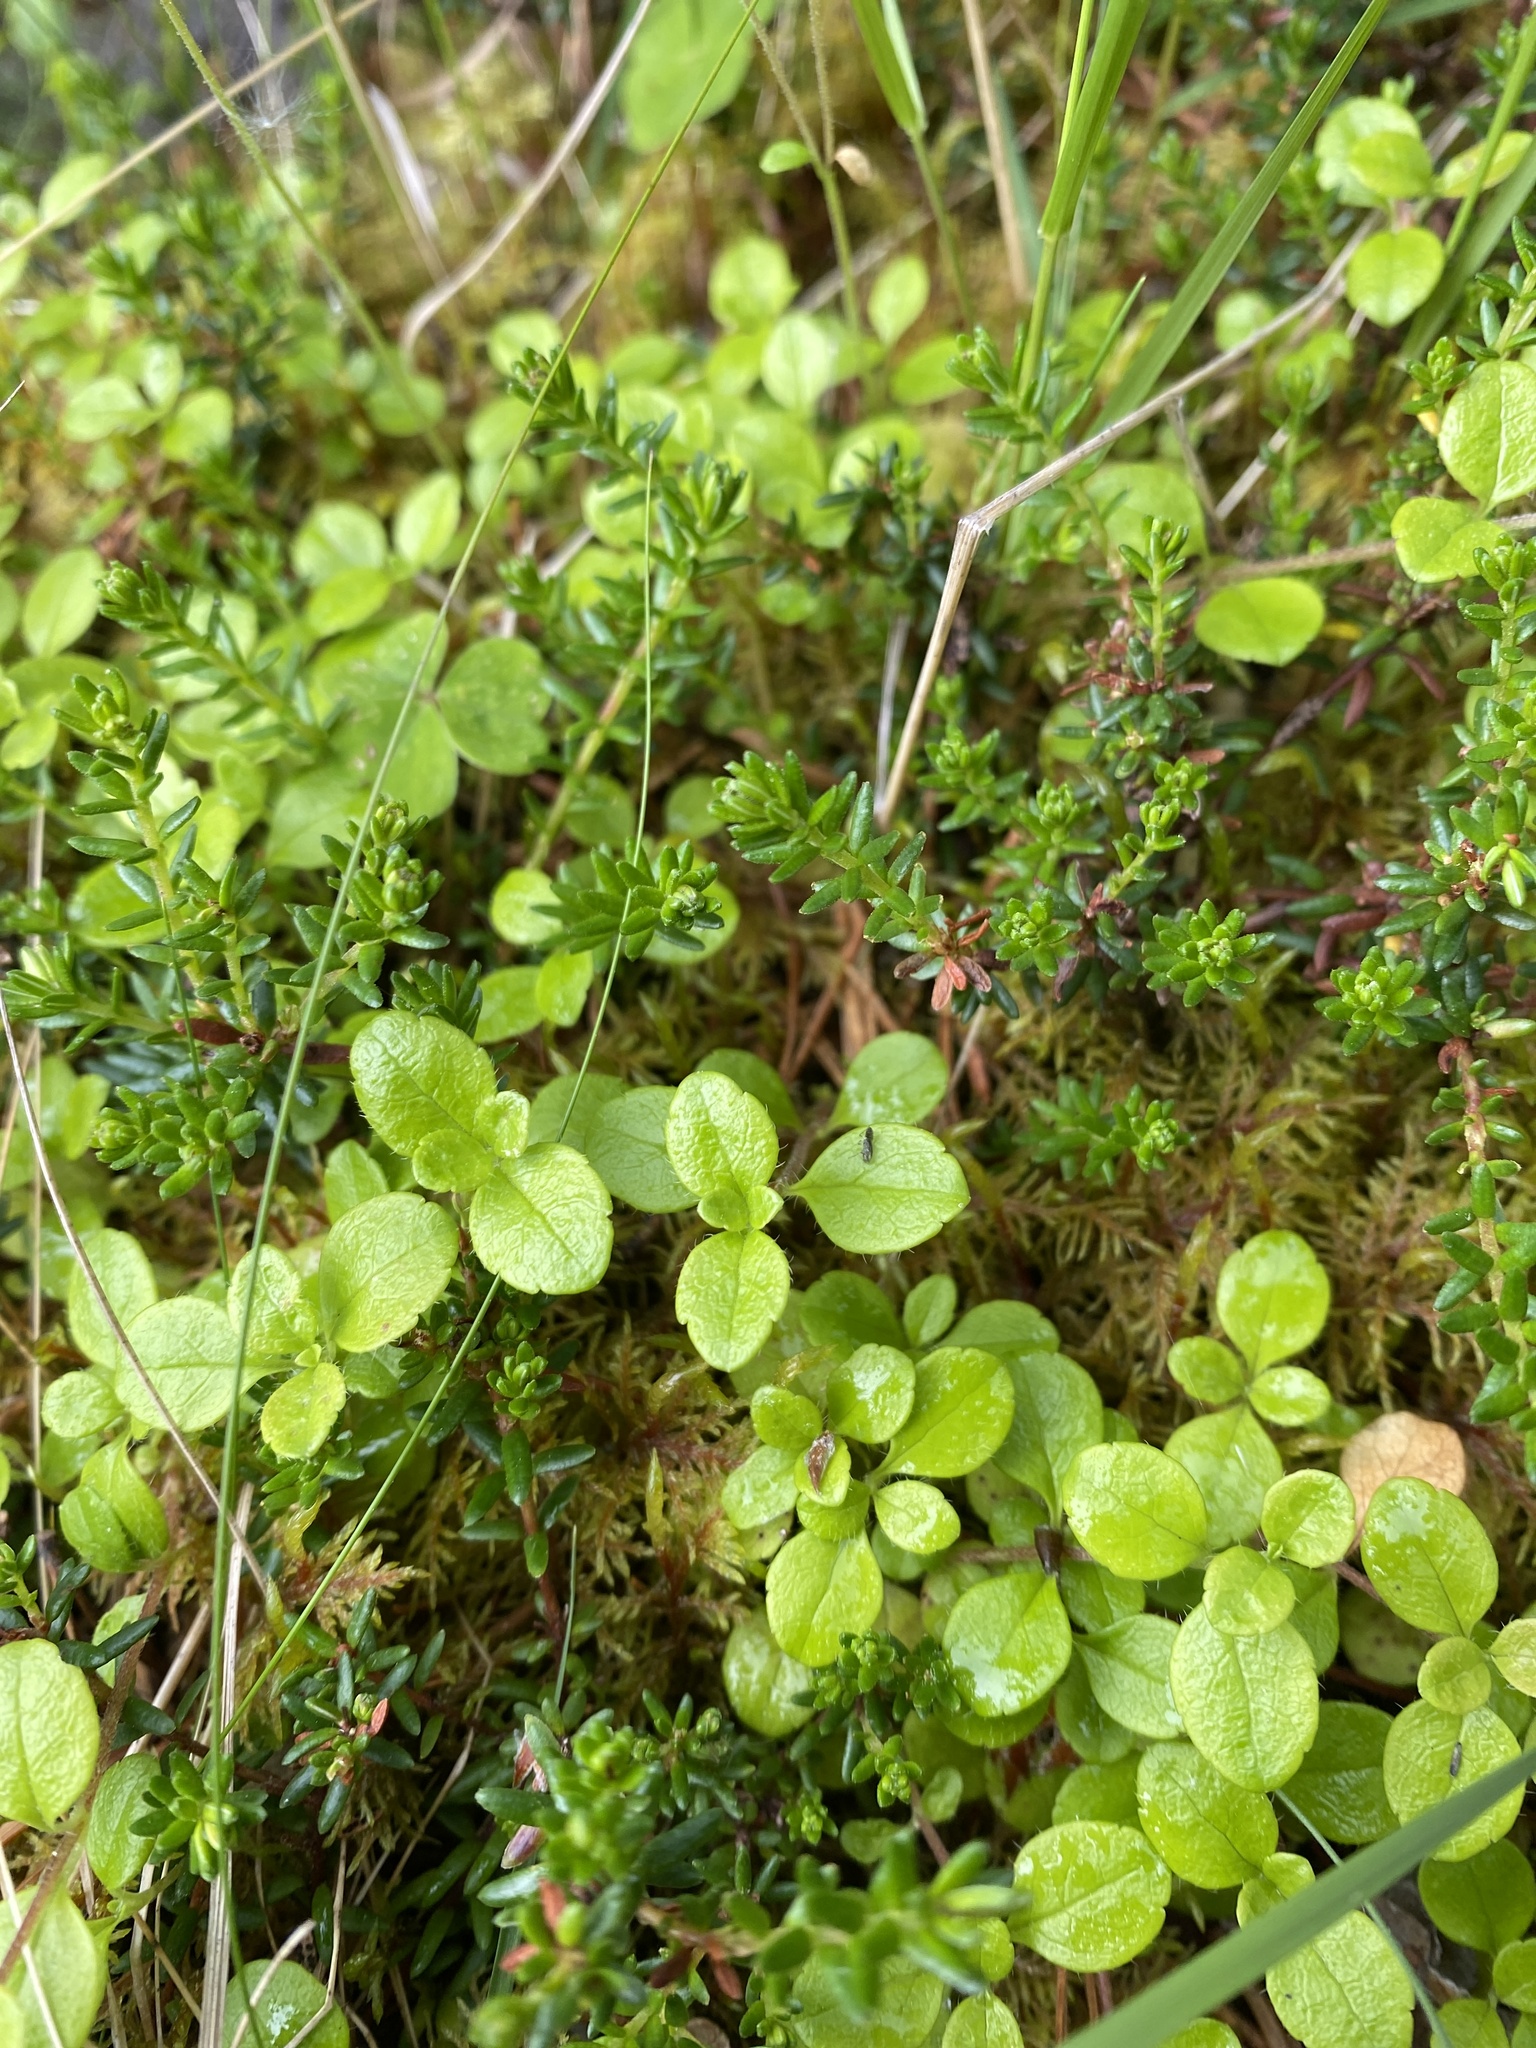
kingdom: Plantae
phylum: Tracheophyta
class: Magnoliopsida
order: Dipsacales
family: Caprifoliaceae
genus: Linnaea
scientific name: Linnaea borealis
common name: Twinflower
